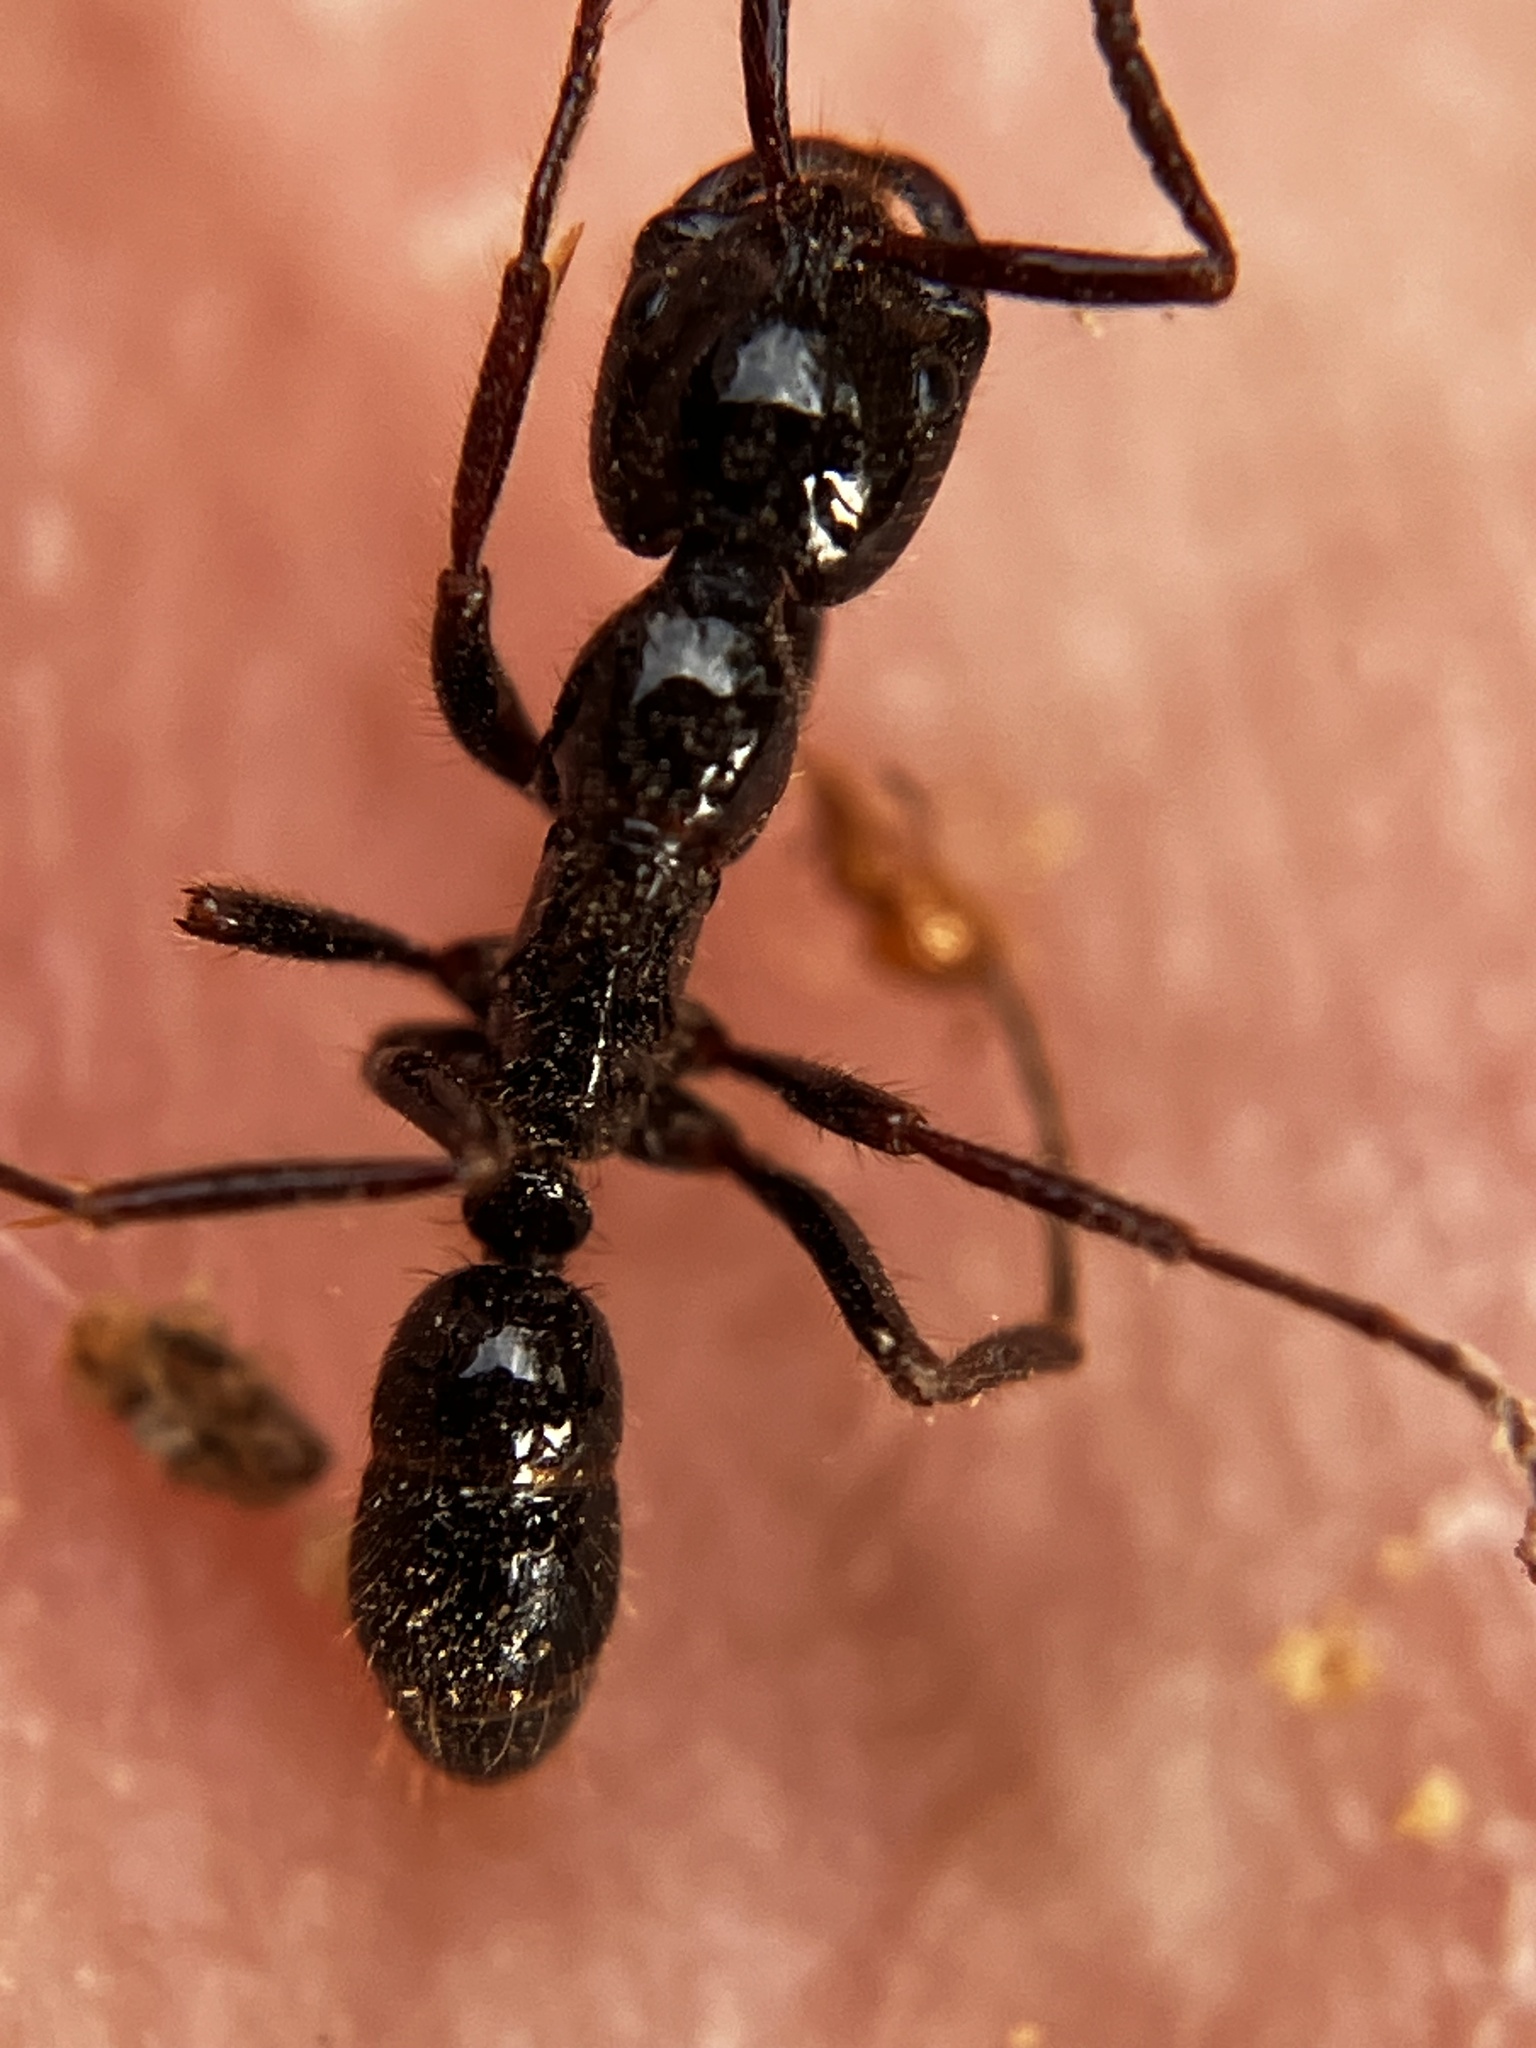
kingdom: Animalia
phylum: Arthropoda
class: Insecta
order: Hymenoptera
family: Formicidae
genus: Leptogenys
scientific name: Leptogenys processionalis
